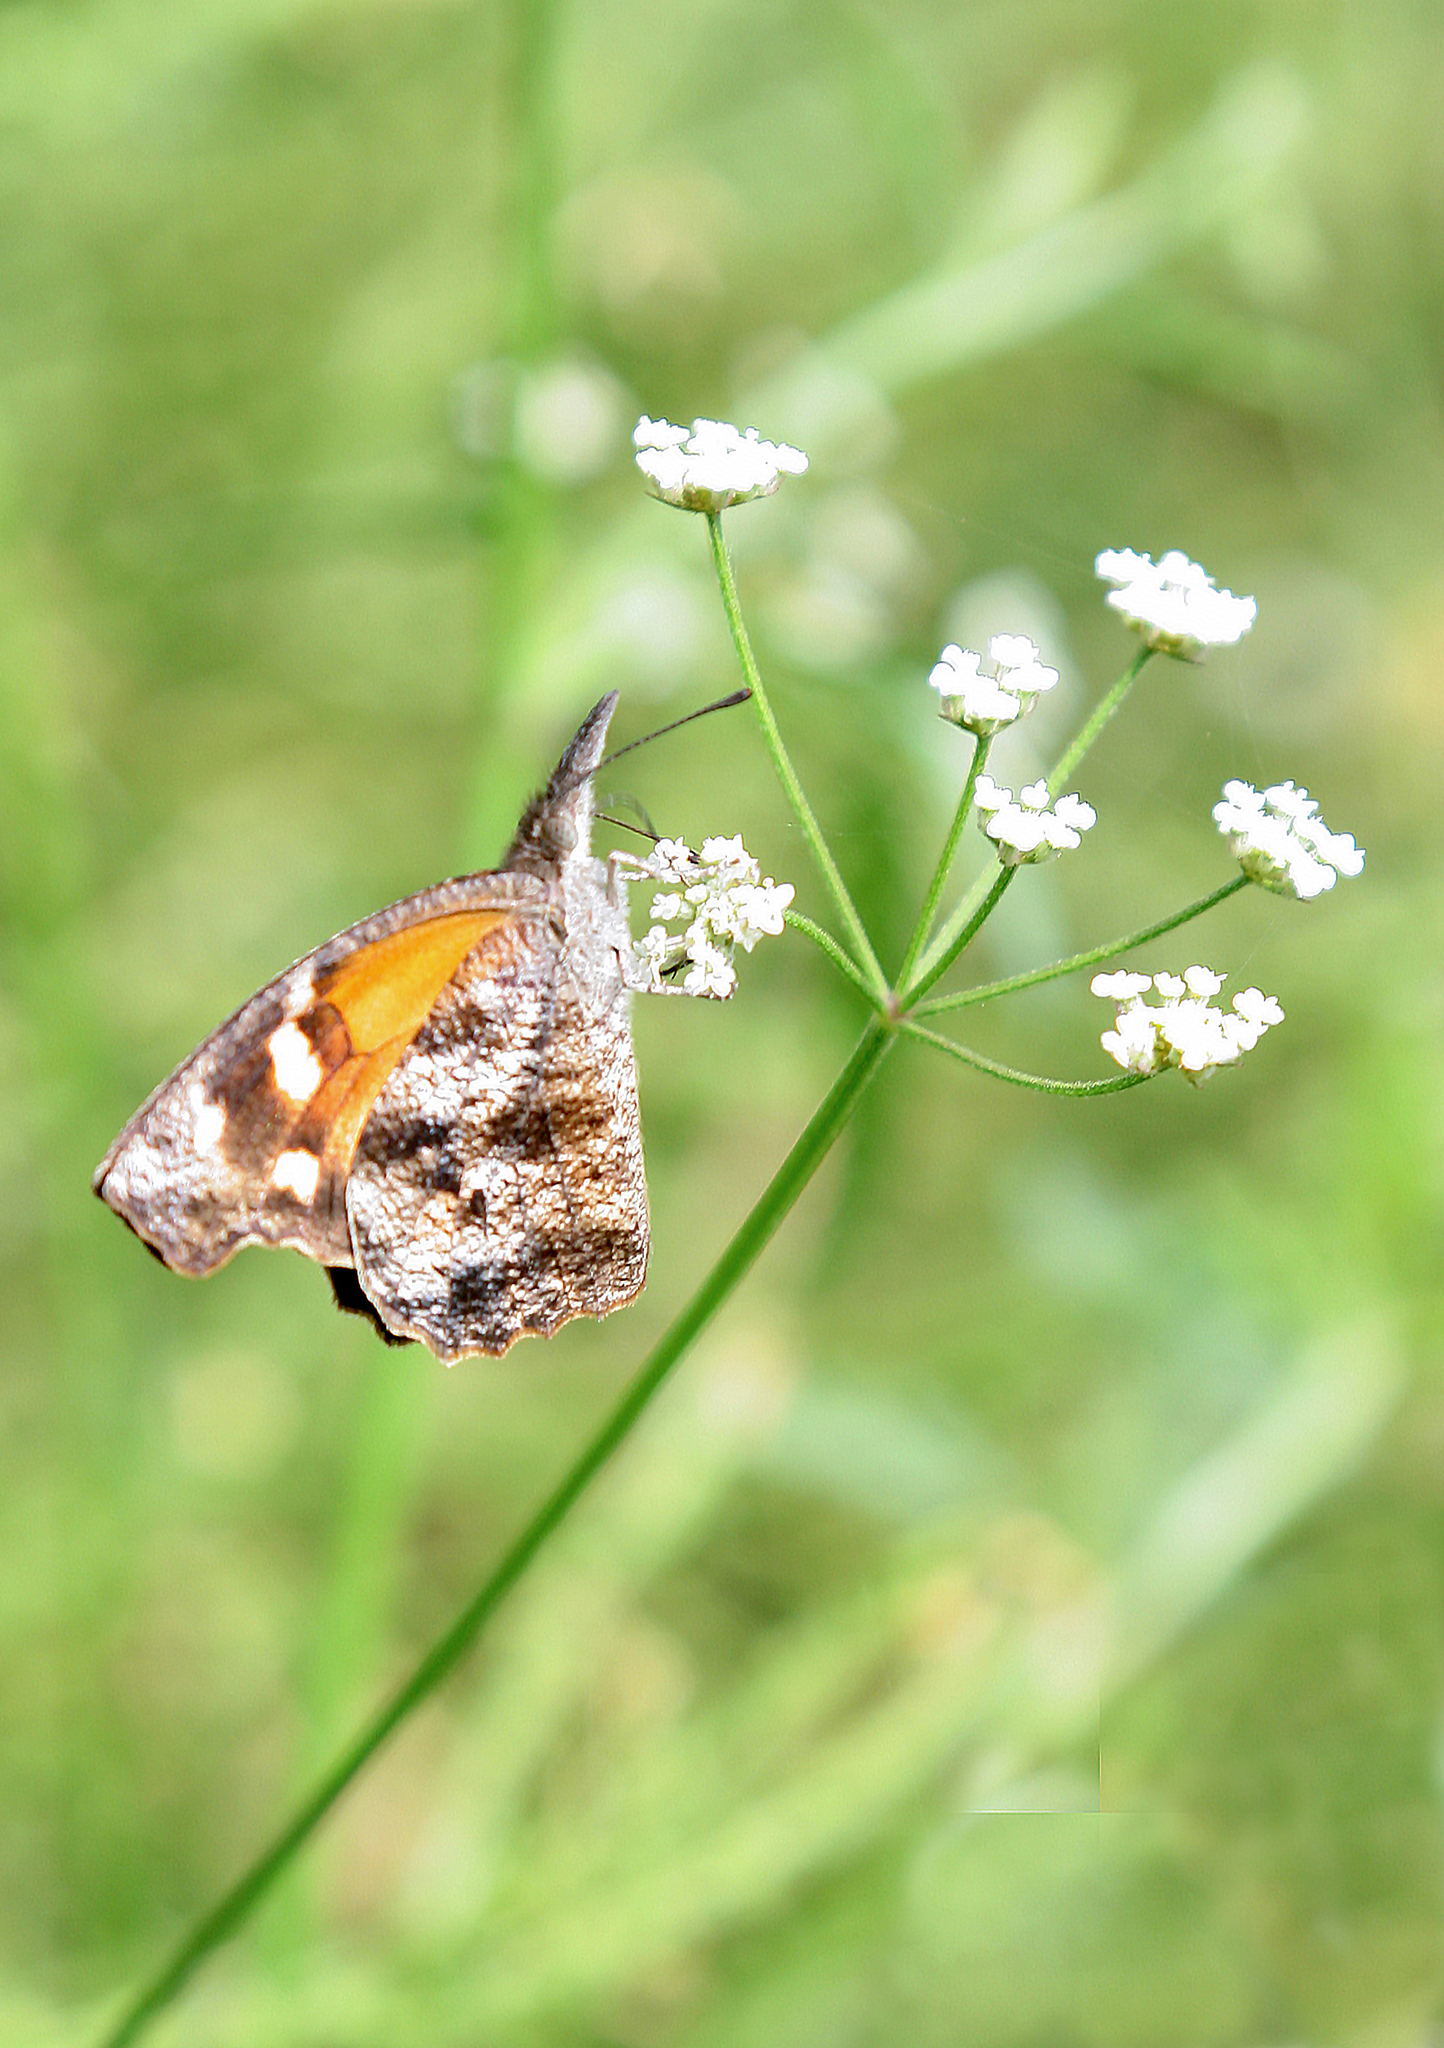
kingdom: Animalia
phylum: Arthropoda
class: Insecta
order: Lepidoptera
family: Nymphalidae
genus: Libytheana
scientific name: Libytheana carinenta
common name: American snout
